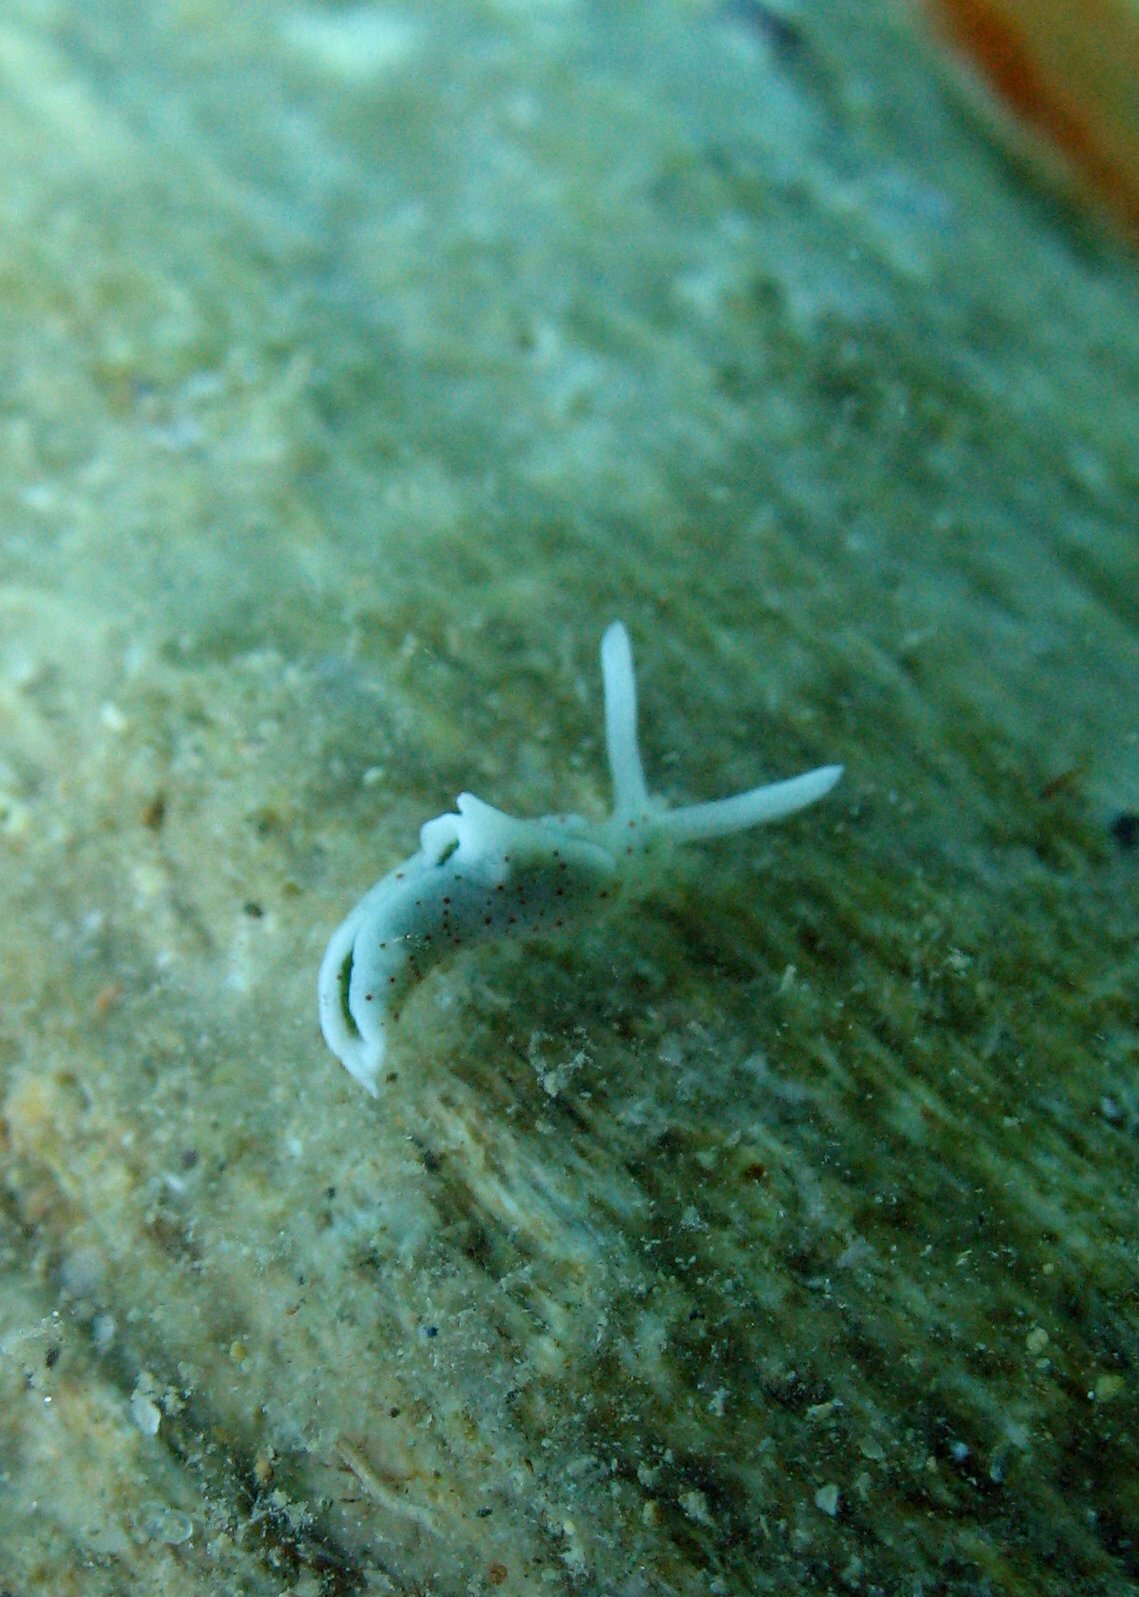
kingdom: Animalia
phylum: Mollusca
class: Gastropoda
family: Plakobranchidae
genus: Elysia
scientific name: Elysia timida
